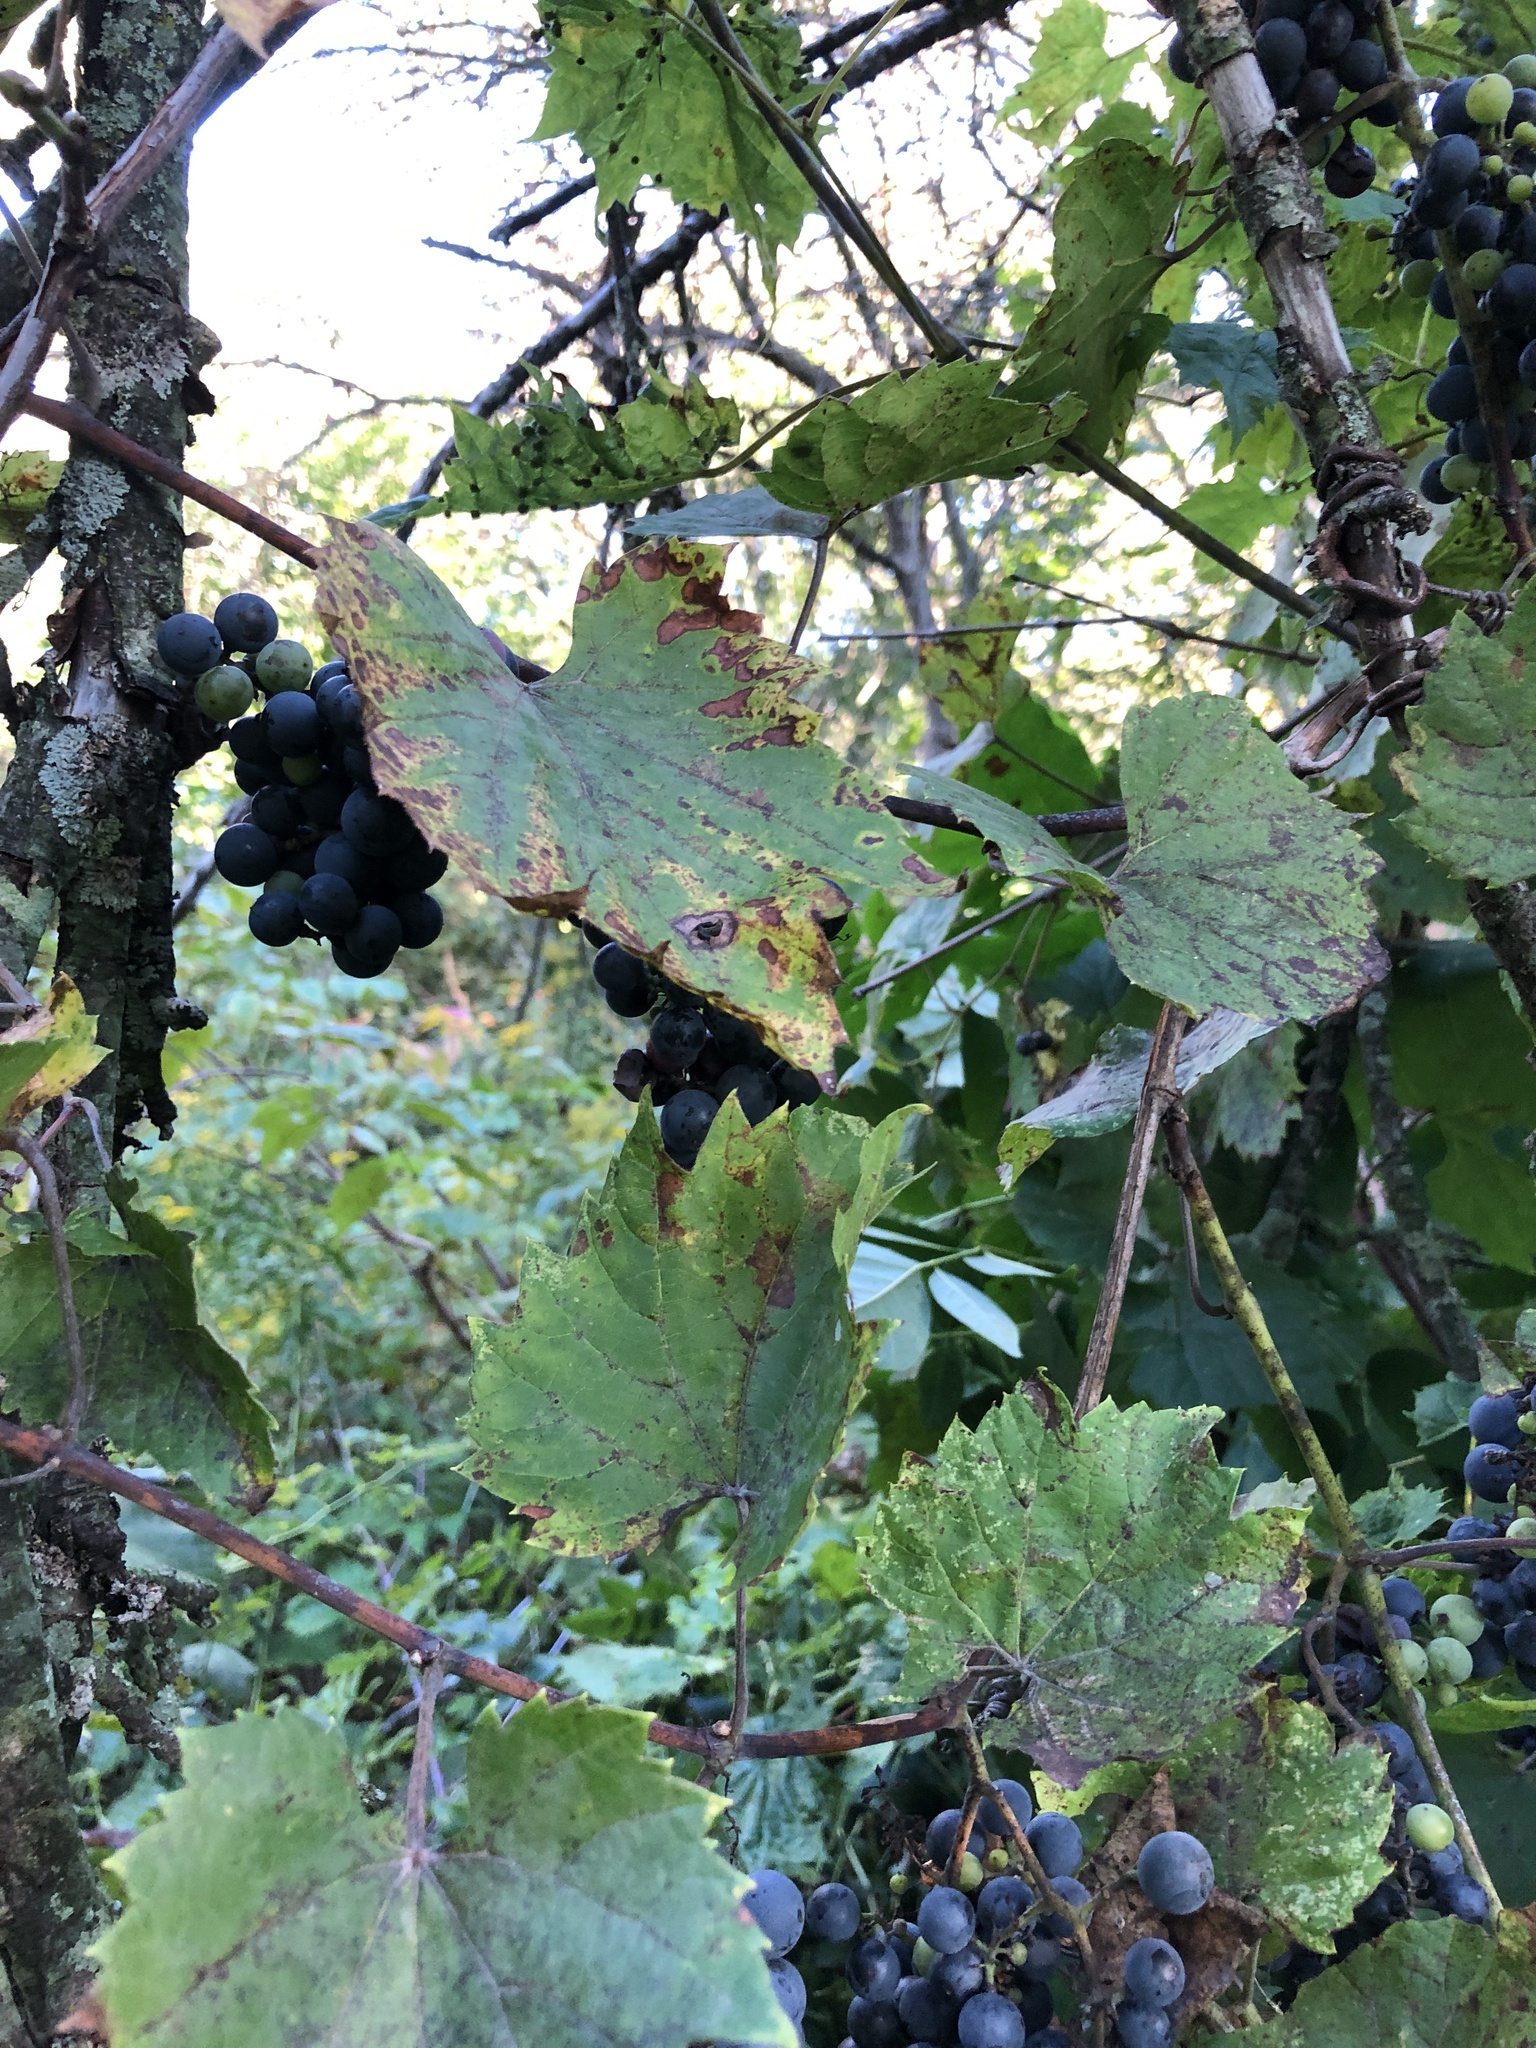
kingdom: Plantae
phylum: Tracheophyta
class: Magnoliopsida
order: Vitales
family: Vitaceae
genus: Vitis
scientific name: Vitis riparia
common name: Frost grape
